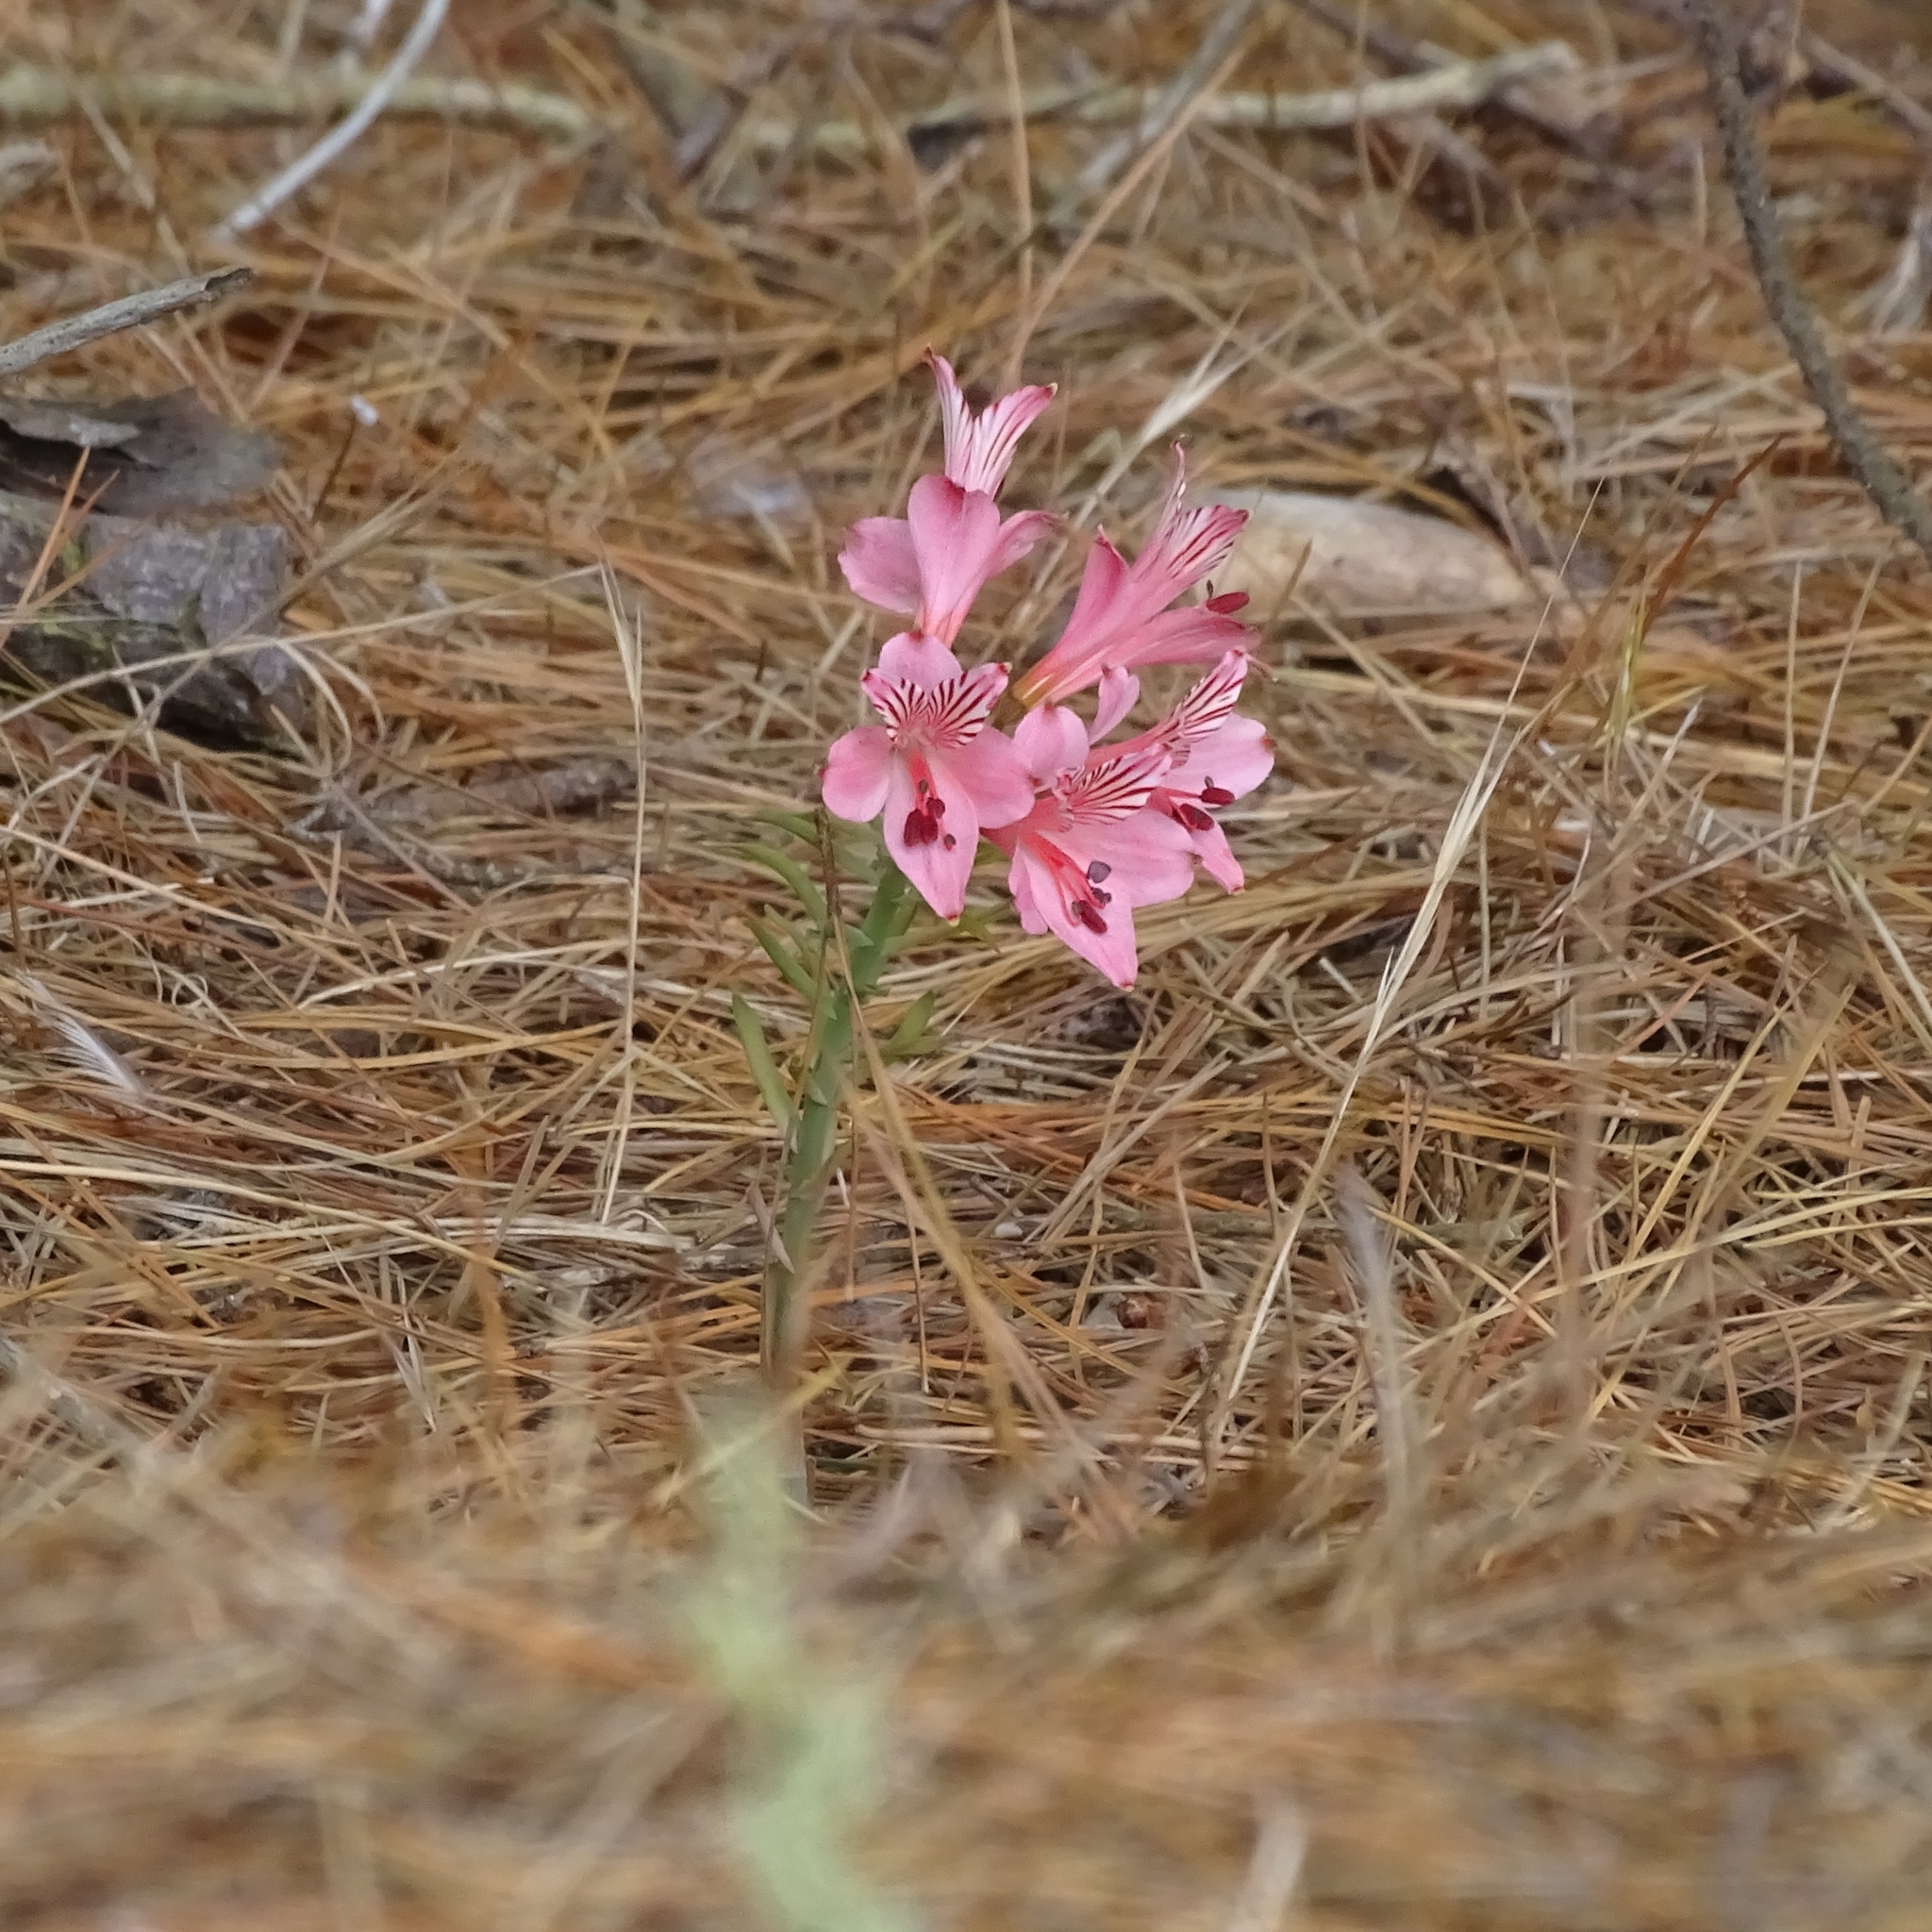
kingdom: Plantae
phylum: Tracheophyta
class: Liliopsida
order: Liliales
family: Alstroemeriaceae
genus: Alstroemeria
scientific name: Alstroemeria ligtu
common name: St. martin's-flower
